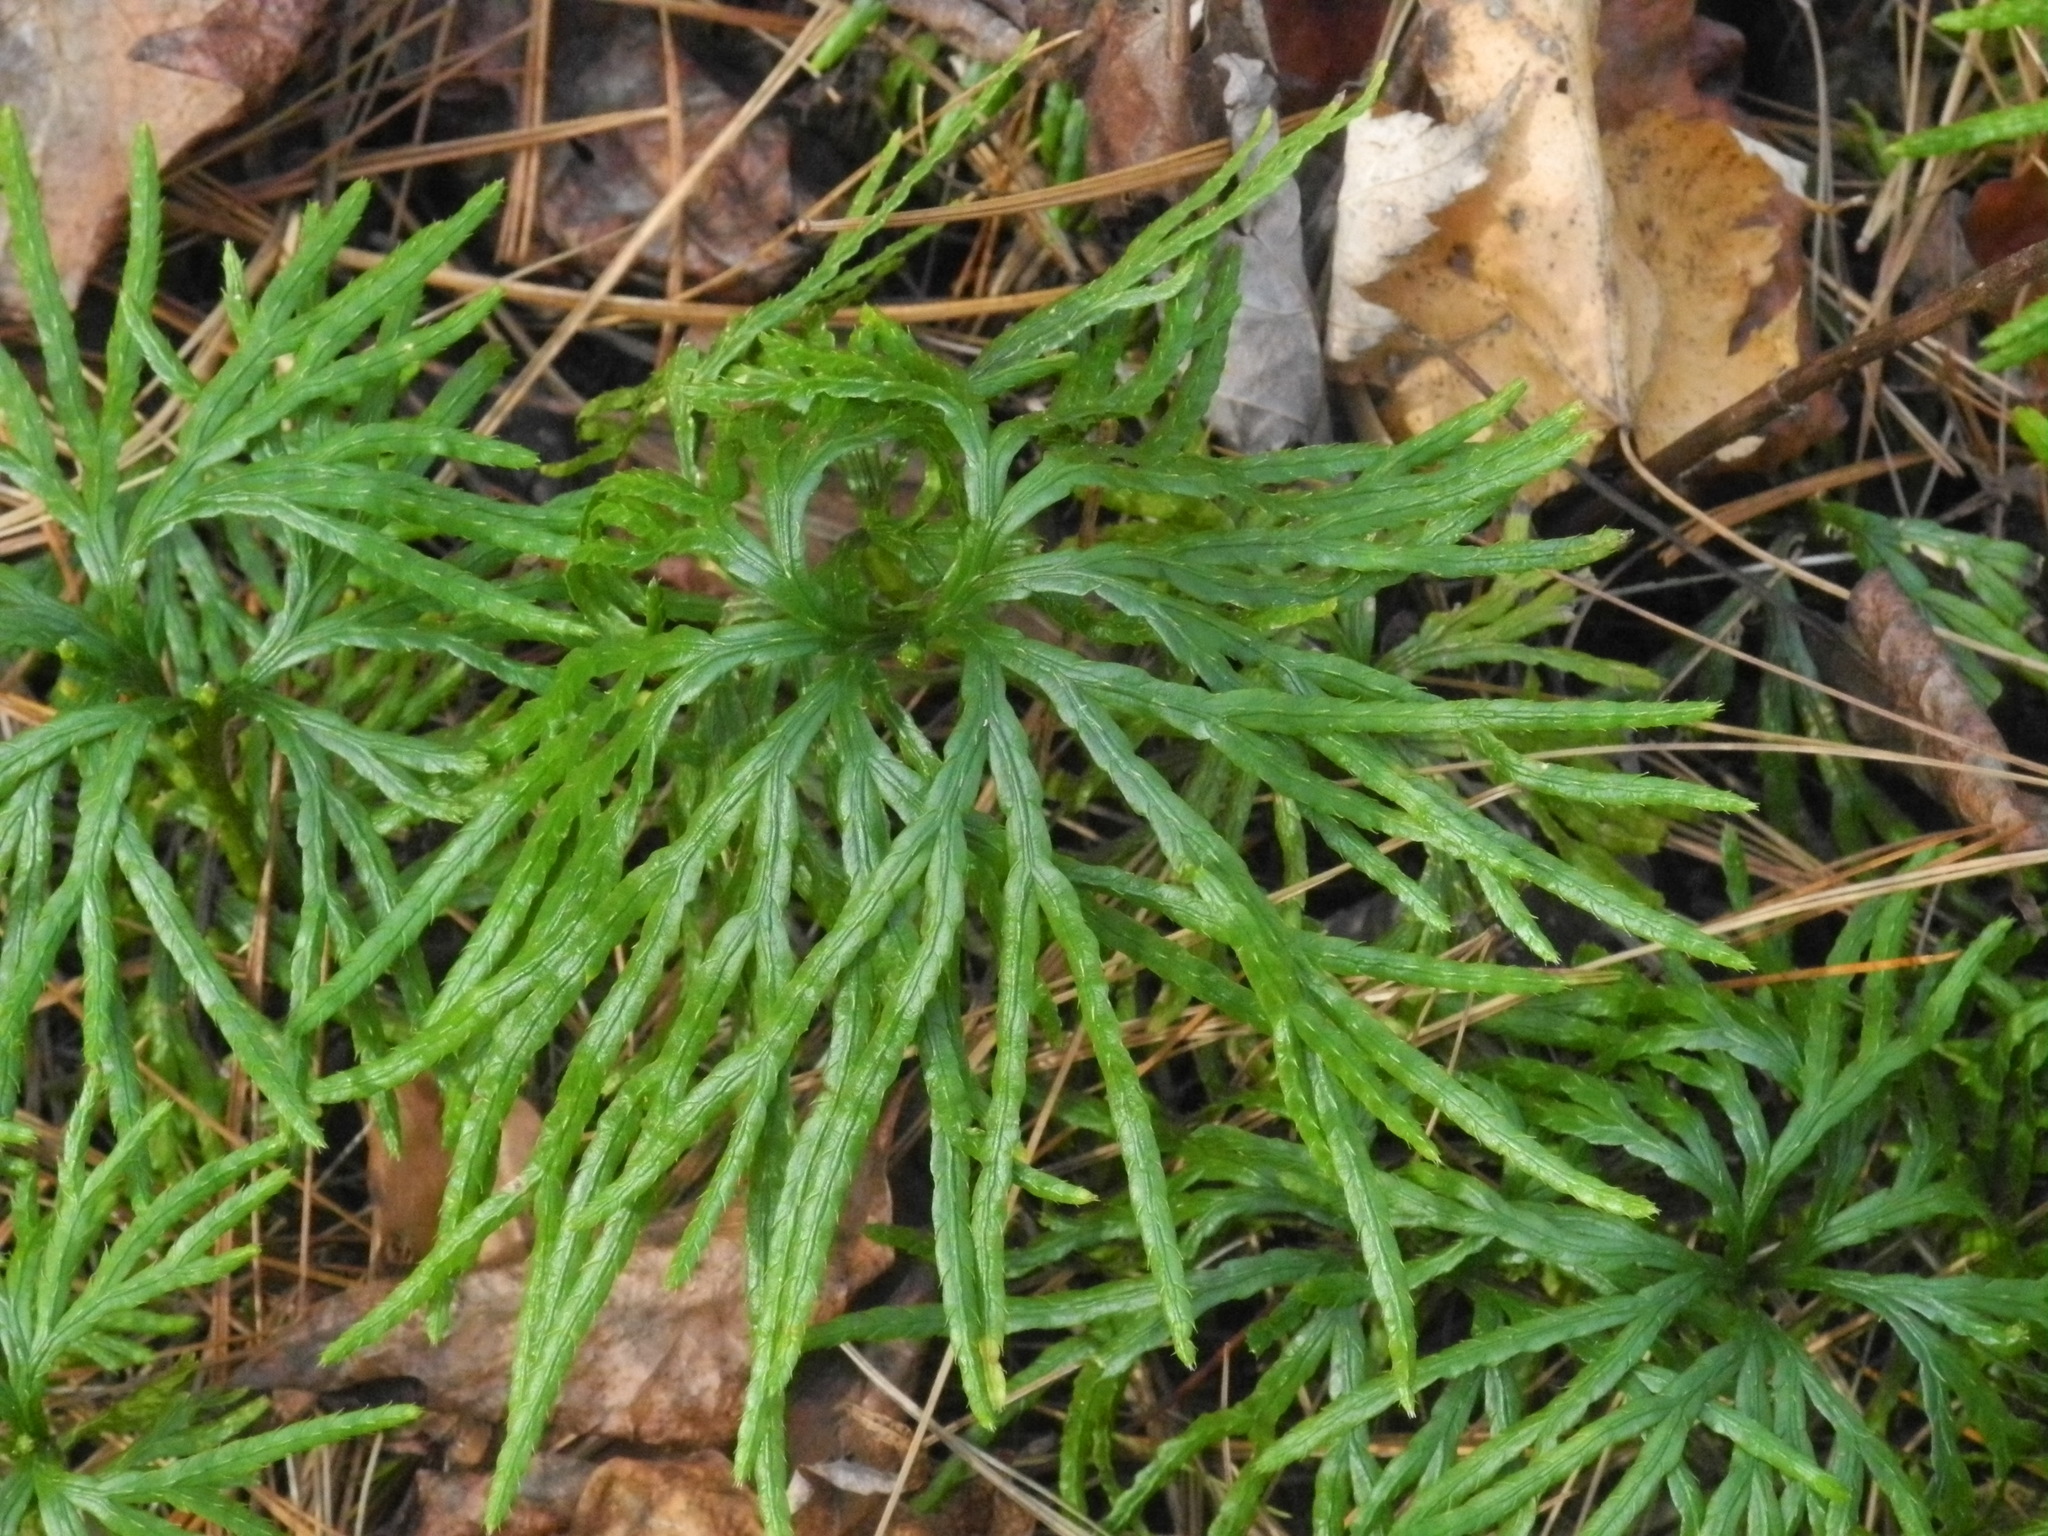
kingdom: Plantae
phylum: Tracheophyta
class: Lycopodiopsida
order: Lycopodiales
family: Lycopodiaceae
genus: Diphasiastrum
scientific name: Diphasiastrum digitatum
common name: Southern running-pine
